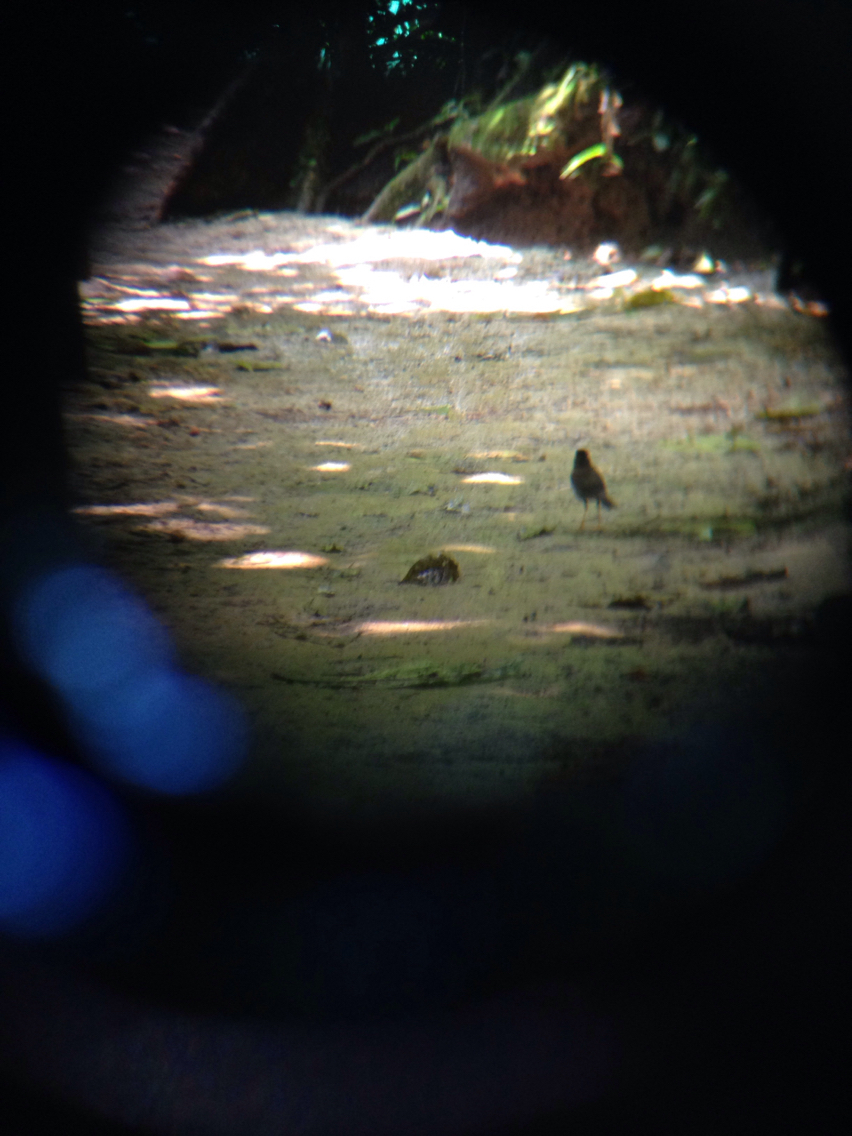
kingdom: Animalia
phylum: Chordata
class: Aves
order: Passeriformes
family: Turdidae
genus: Catharus
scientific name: Catharus mexicanus
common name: Black-headed nightingale-thrush
